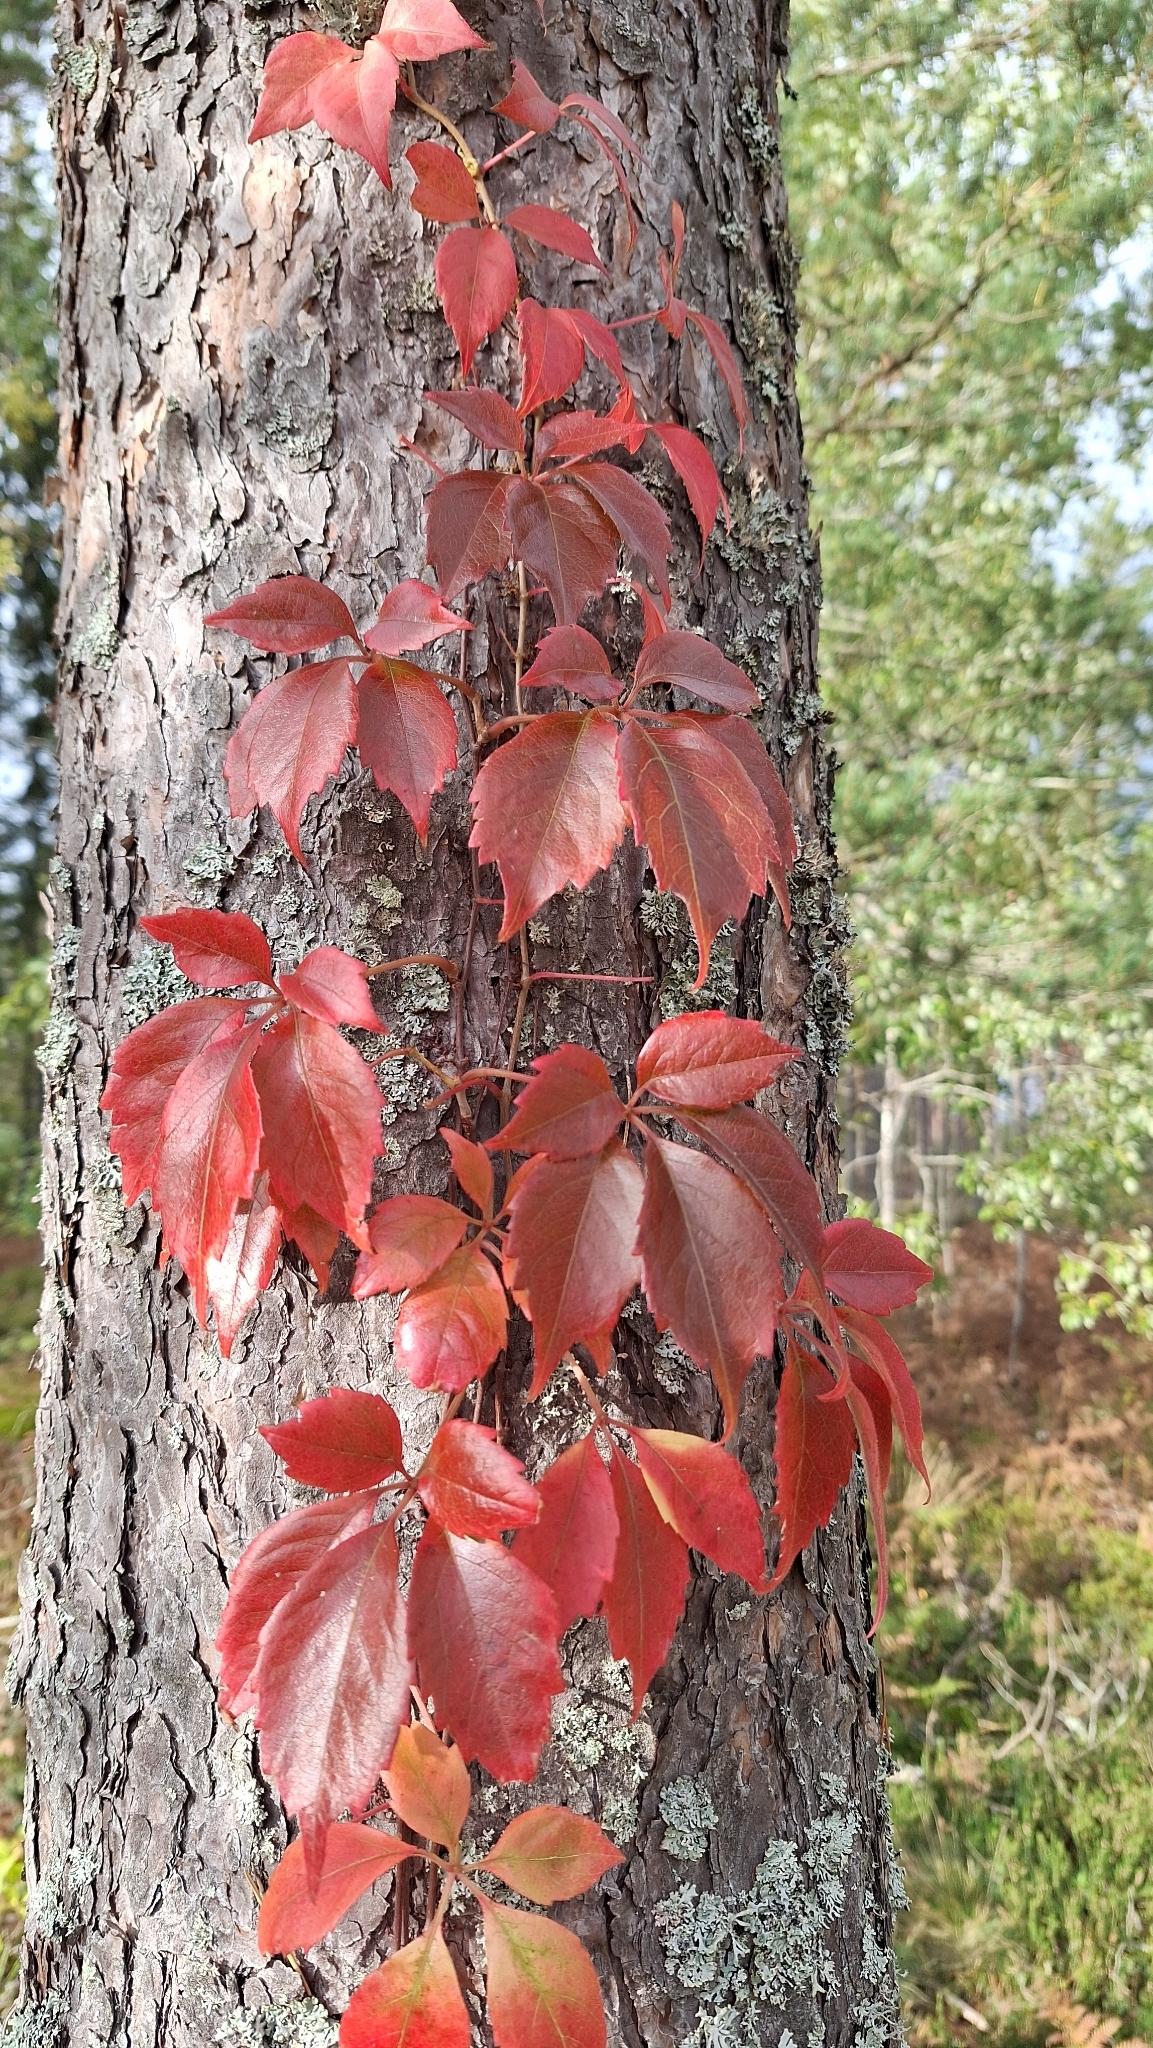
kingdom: Plantae
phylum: Tracheophyta
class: Magnoliopsida
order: Vitales
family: Vitaceae
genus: Parthenocissus
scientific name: Parthenocissus quinquefolia
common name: Virginia-creeper
